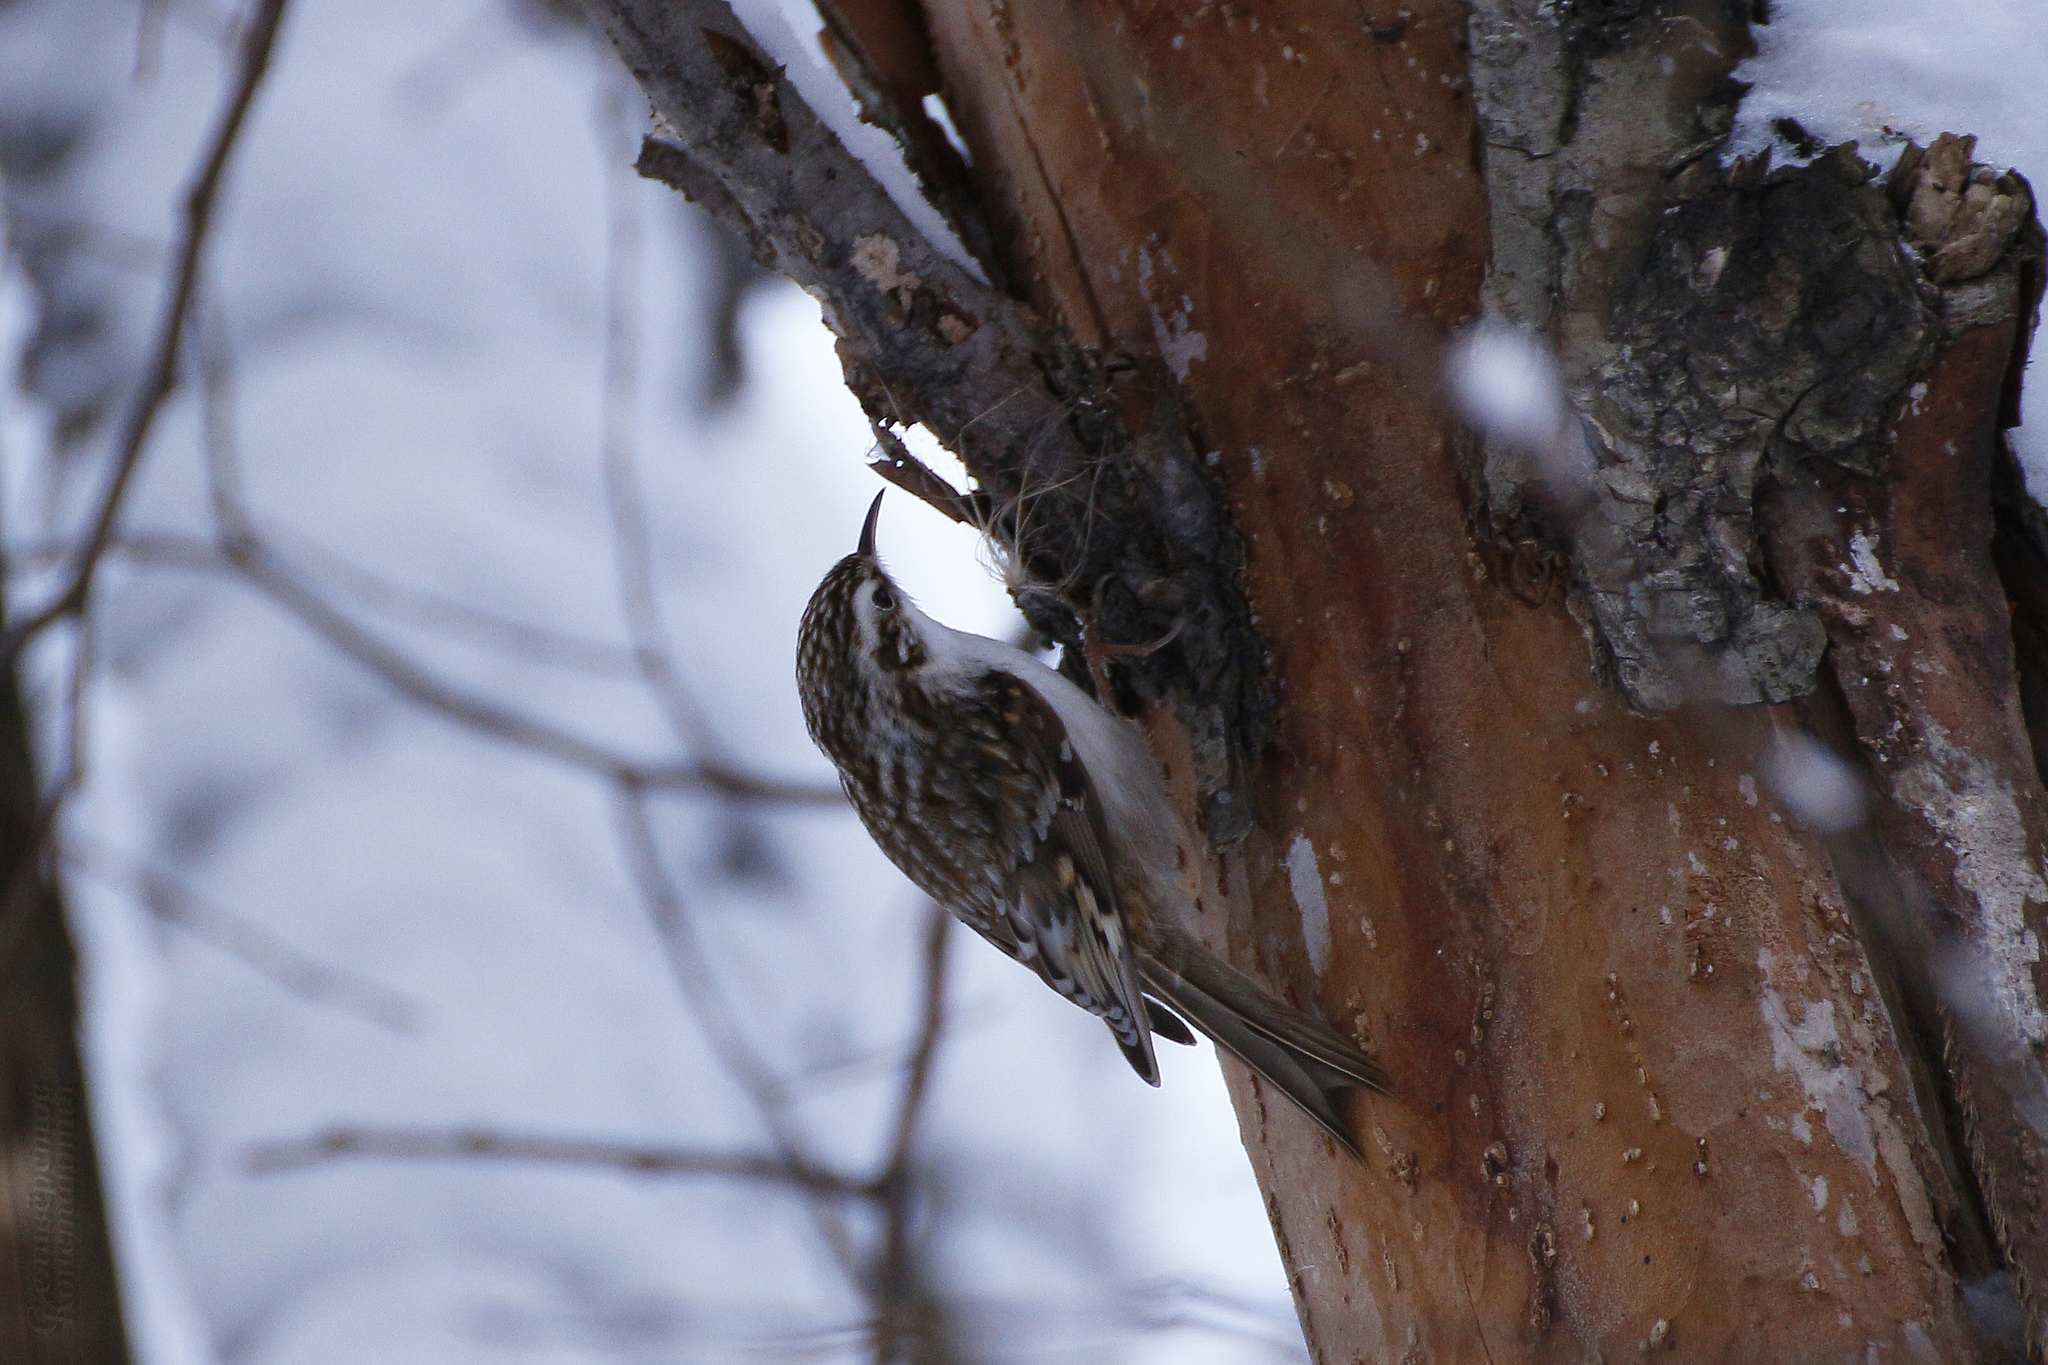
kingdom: Animalia
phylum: Chordata
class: Aves
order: Passeriformes
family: Certhiidae
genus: Certhia
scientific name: Certhia familiaris
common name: Eurasian treecreeper
